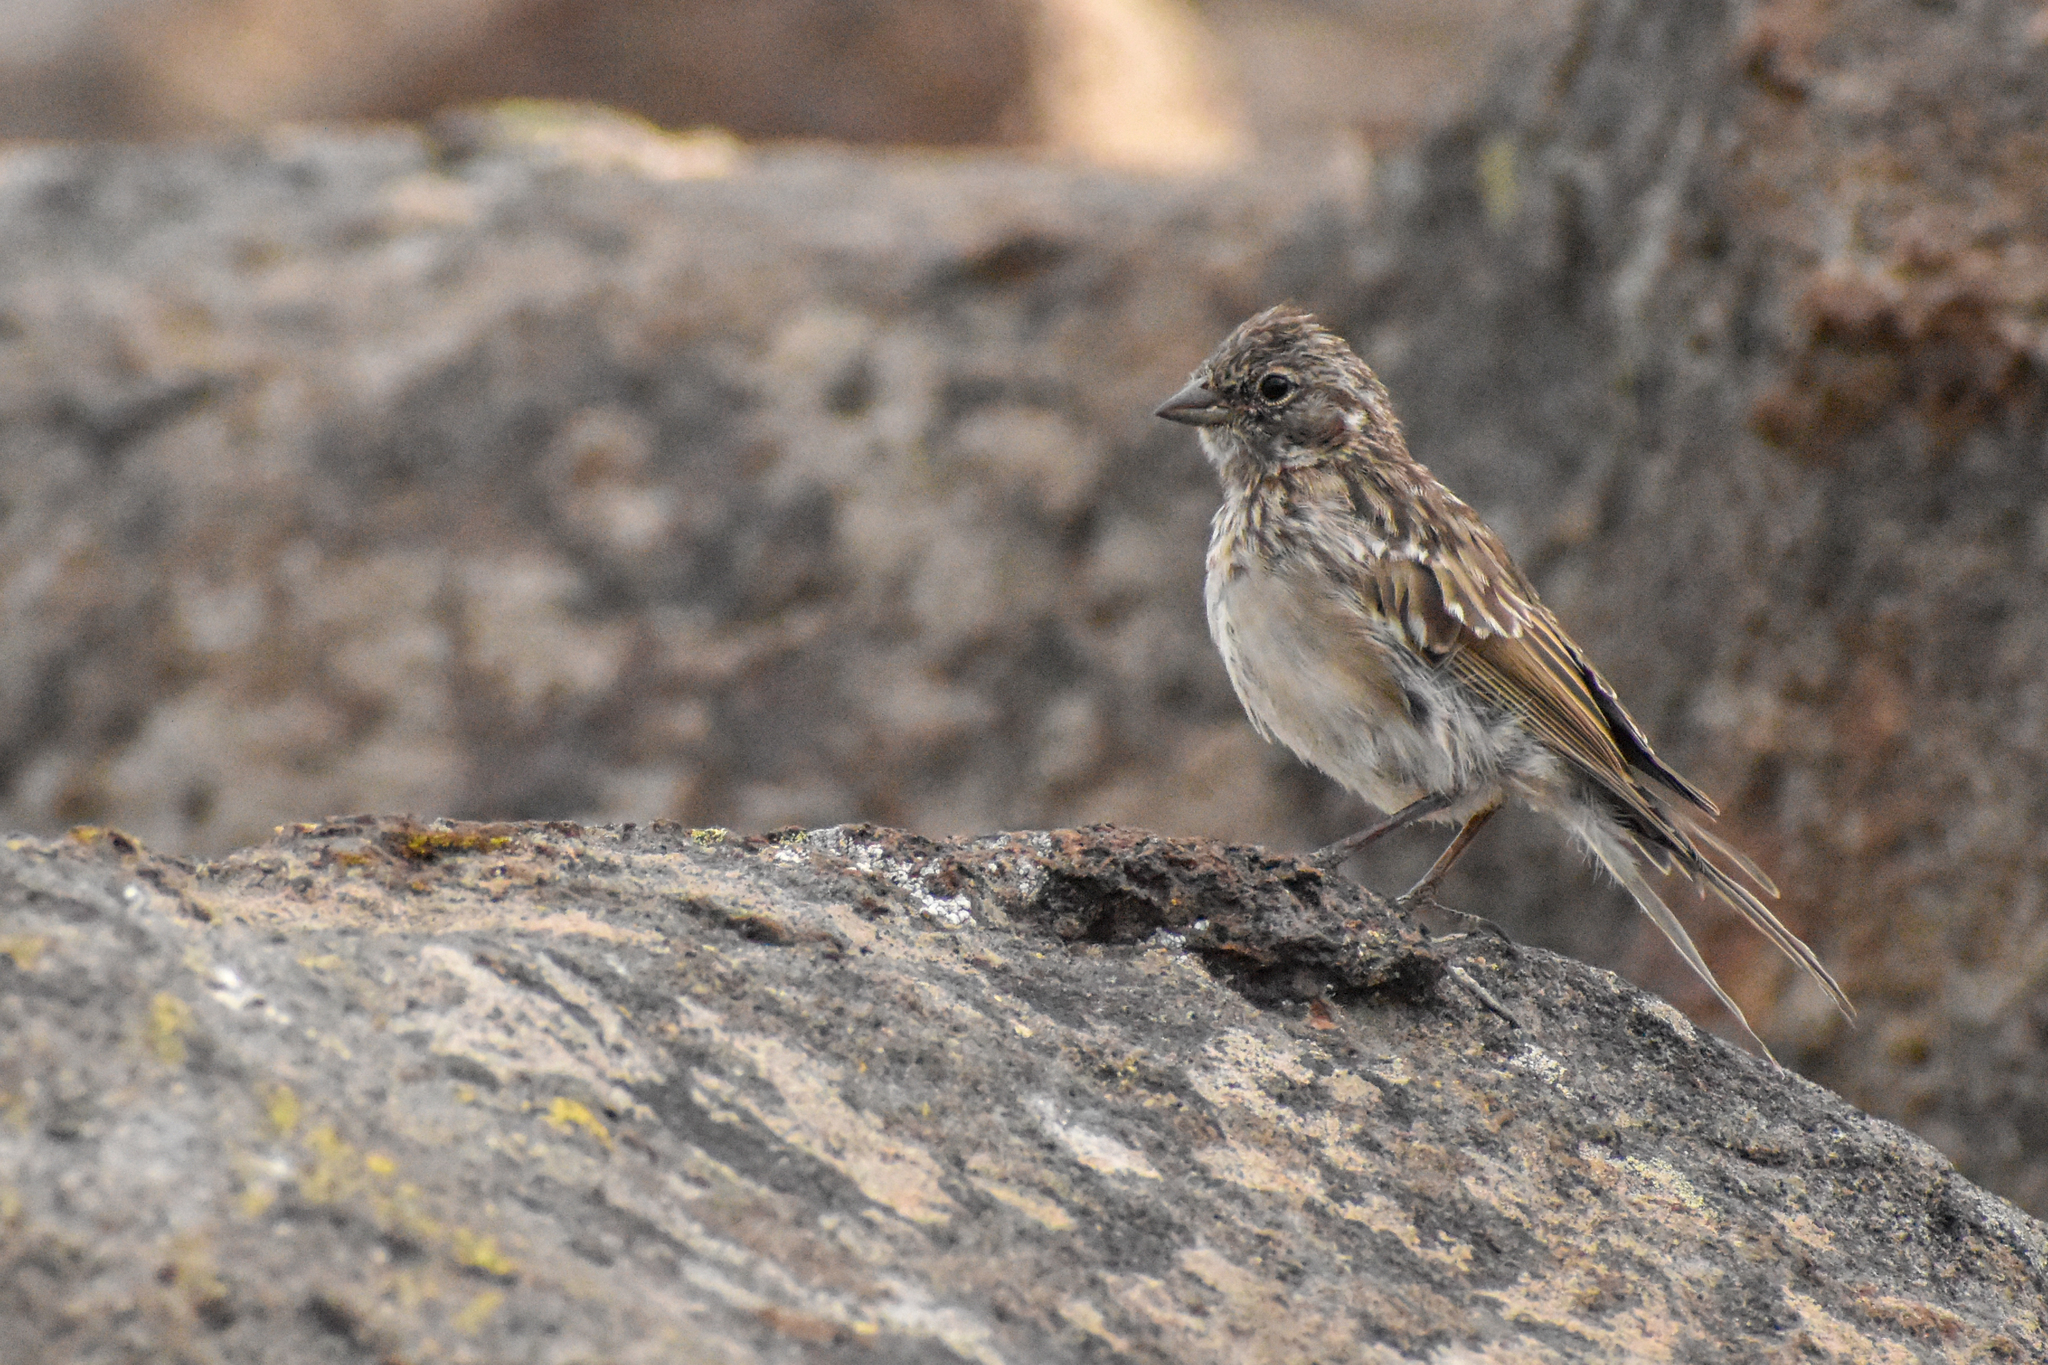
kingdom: Animalia
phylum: Chordata
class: Aves
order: Passeriformes
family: Passerellidae
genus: Zonotrichia
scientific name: Zonotrichia capensis
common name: Rufous-collared sparrow
